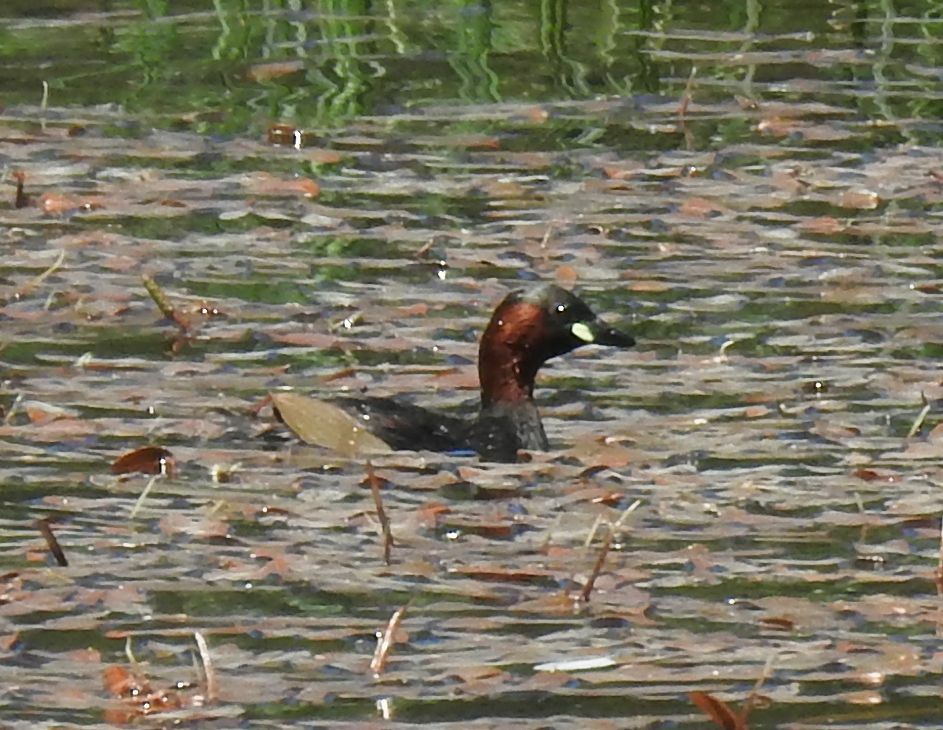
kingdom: Animalia
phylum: Chordata
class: Aves
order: Podicipediformes
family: Podicipedidae
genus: Tachybaptus
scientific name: Tachybaptus ruficollis
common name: Little grebe
